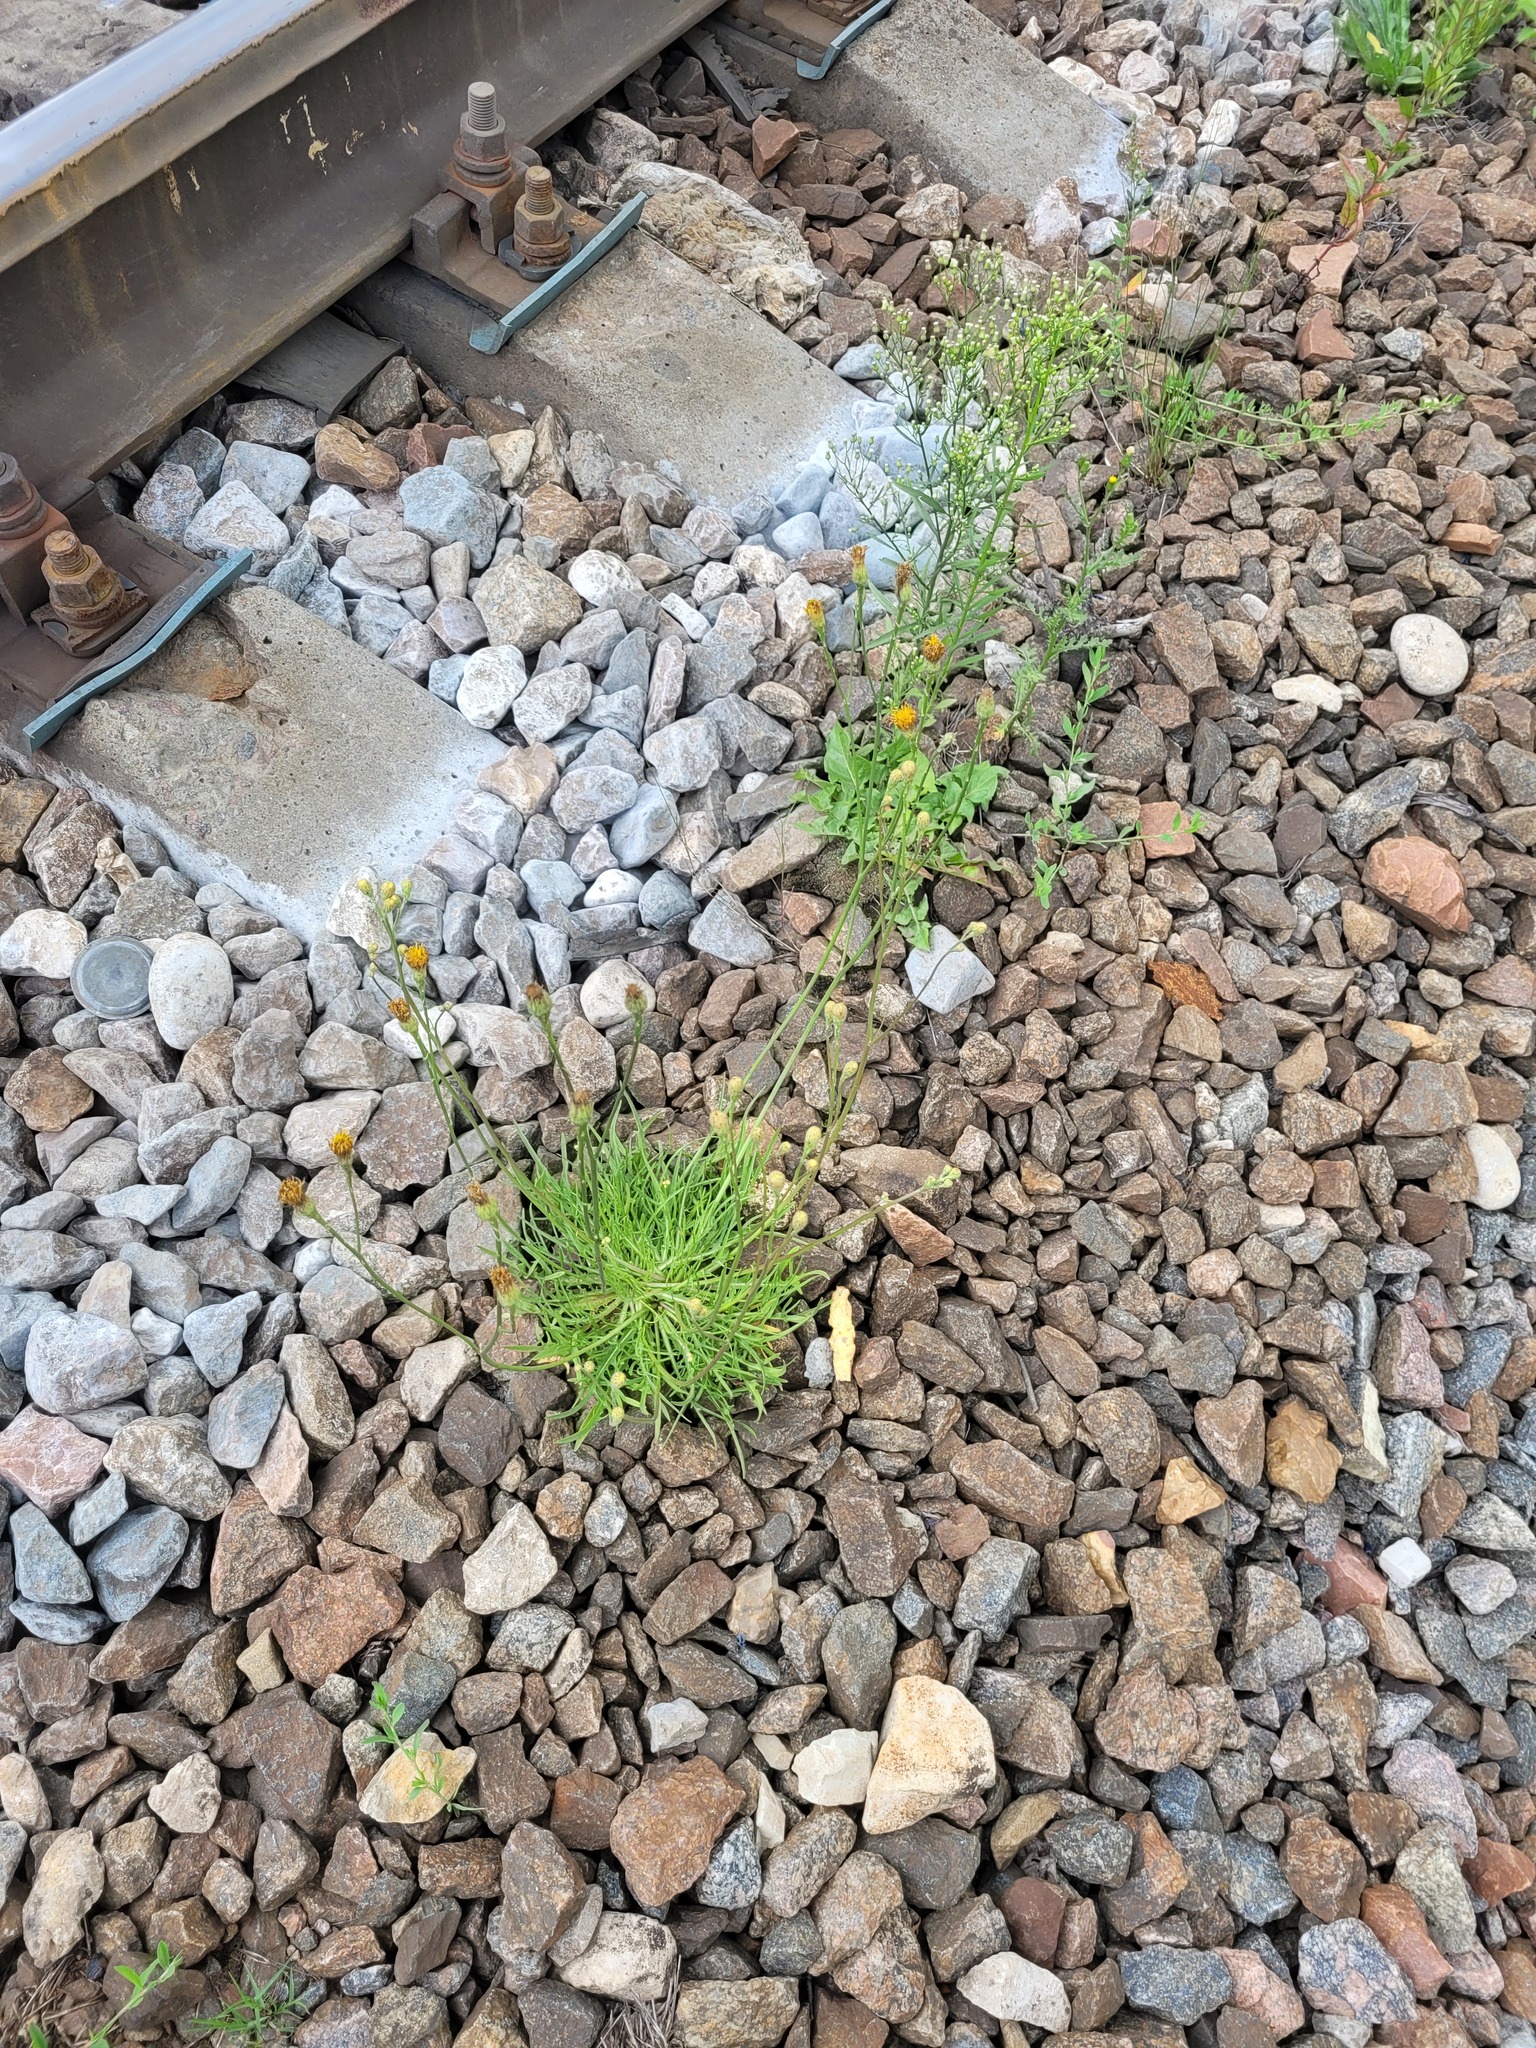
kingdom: Plantae
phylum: Tracheophyta
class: Magnoliopsida
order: Asterales
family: Asteraceae
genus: Scorzoneroides
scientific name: Scorzoneroides autumnalis
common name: Autumn hawkbit
